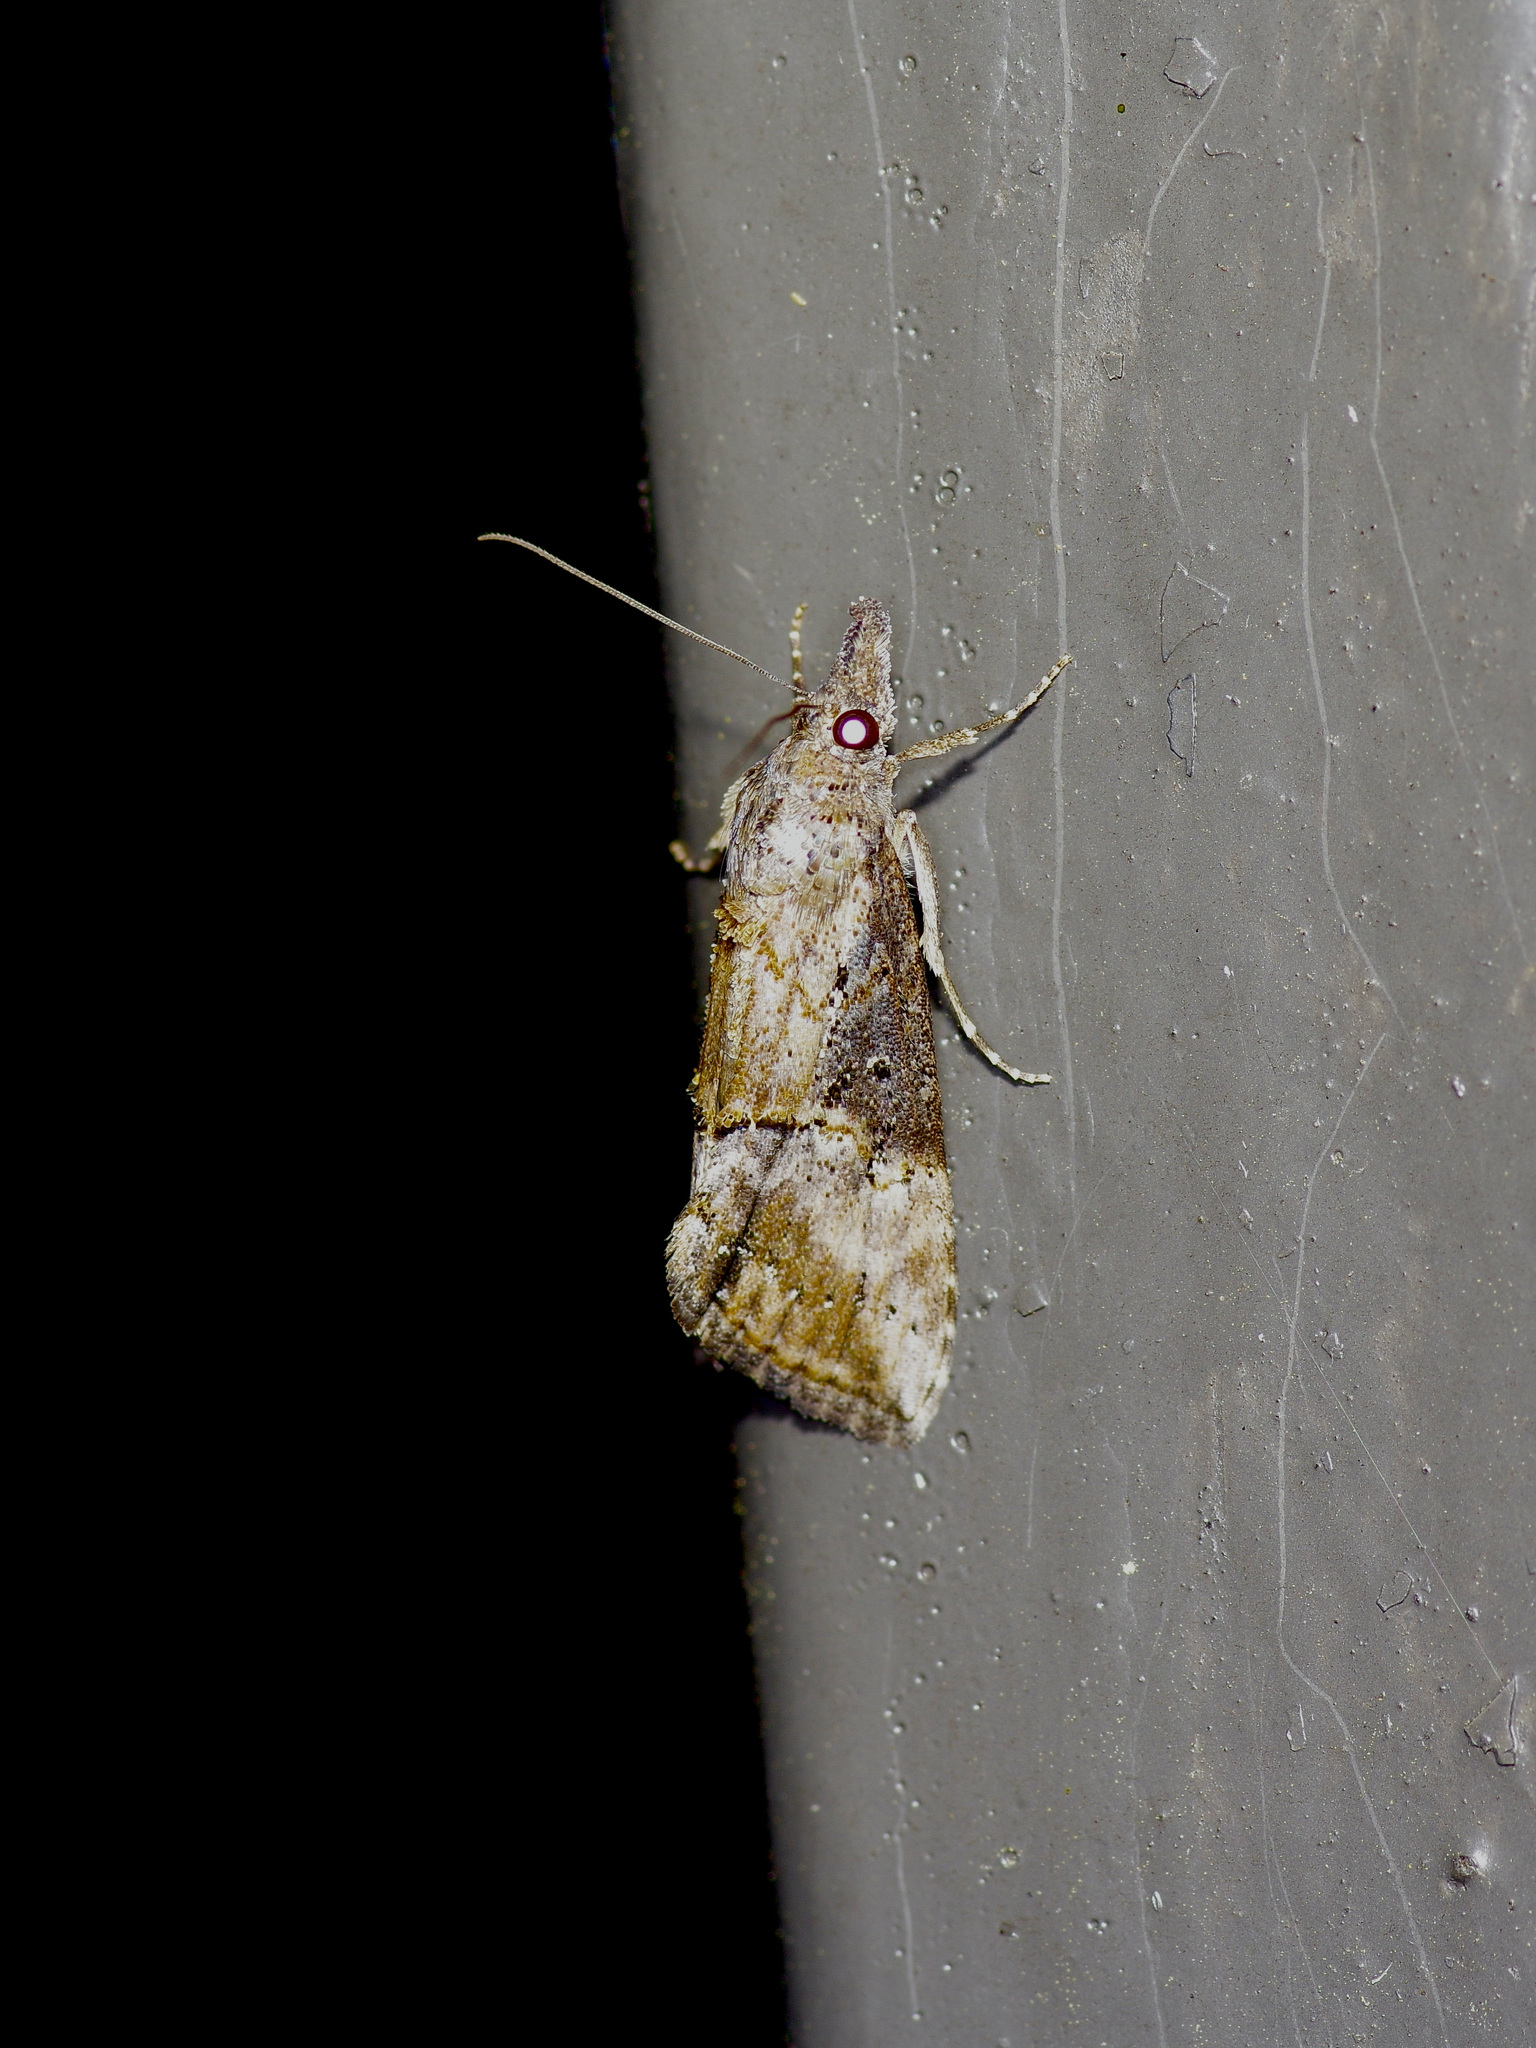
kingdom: Animalia
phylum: Arthropoda
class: Insecta
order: Lepidoptera
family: Erebidae
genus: Hypena
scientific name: Hypena scabra
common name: Green cloverworm
